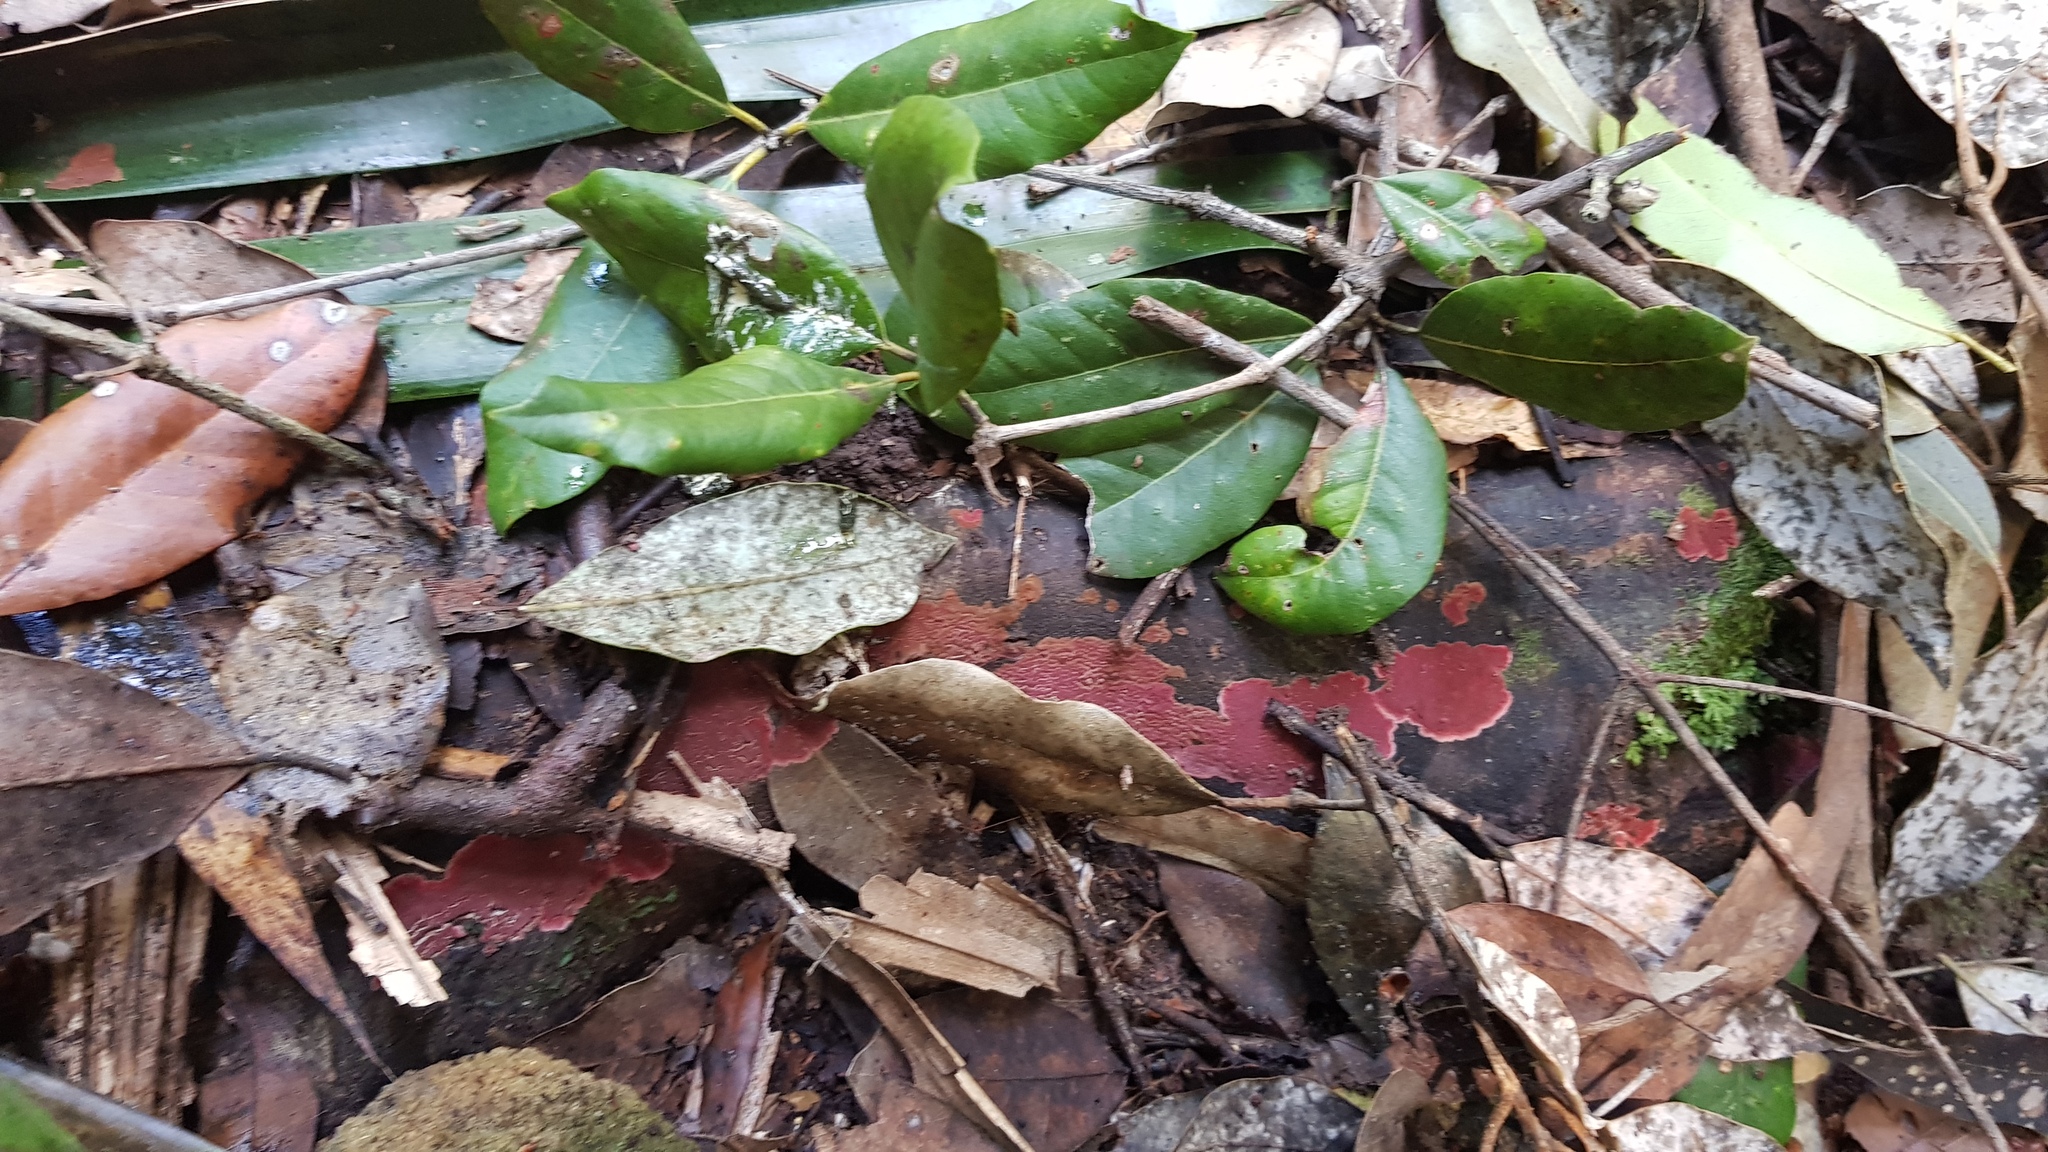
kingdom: Fungi
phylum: Basidiomycota
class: Agaricomycetes
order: Hymenochaetales
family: Hymenochaetaceae
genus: Hymenochaete
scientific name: Hymenochaete mougeotii
